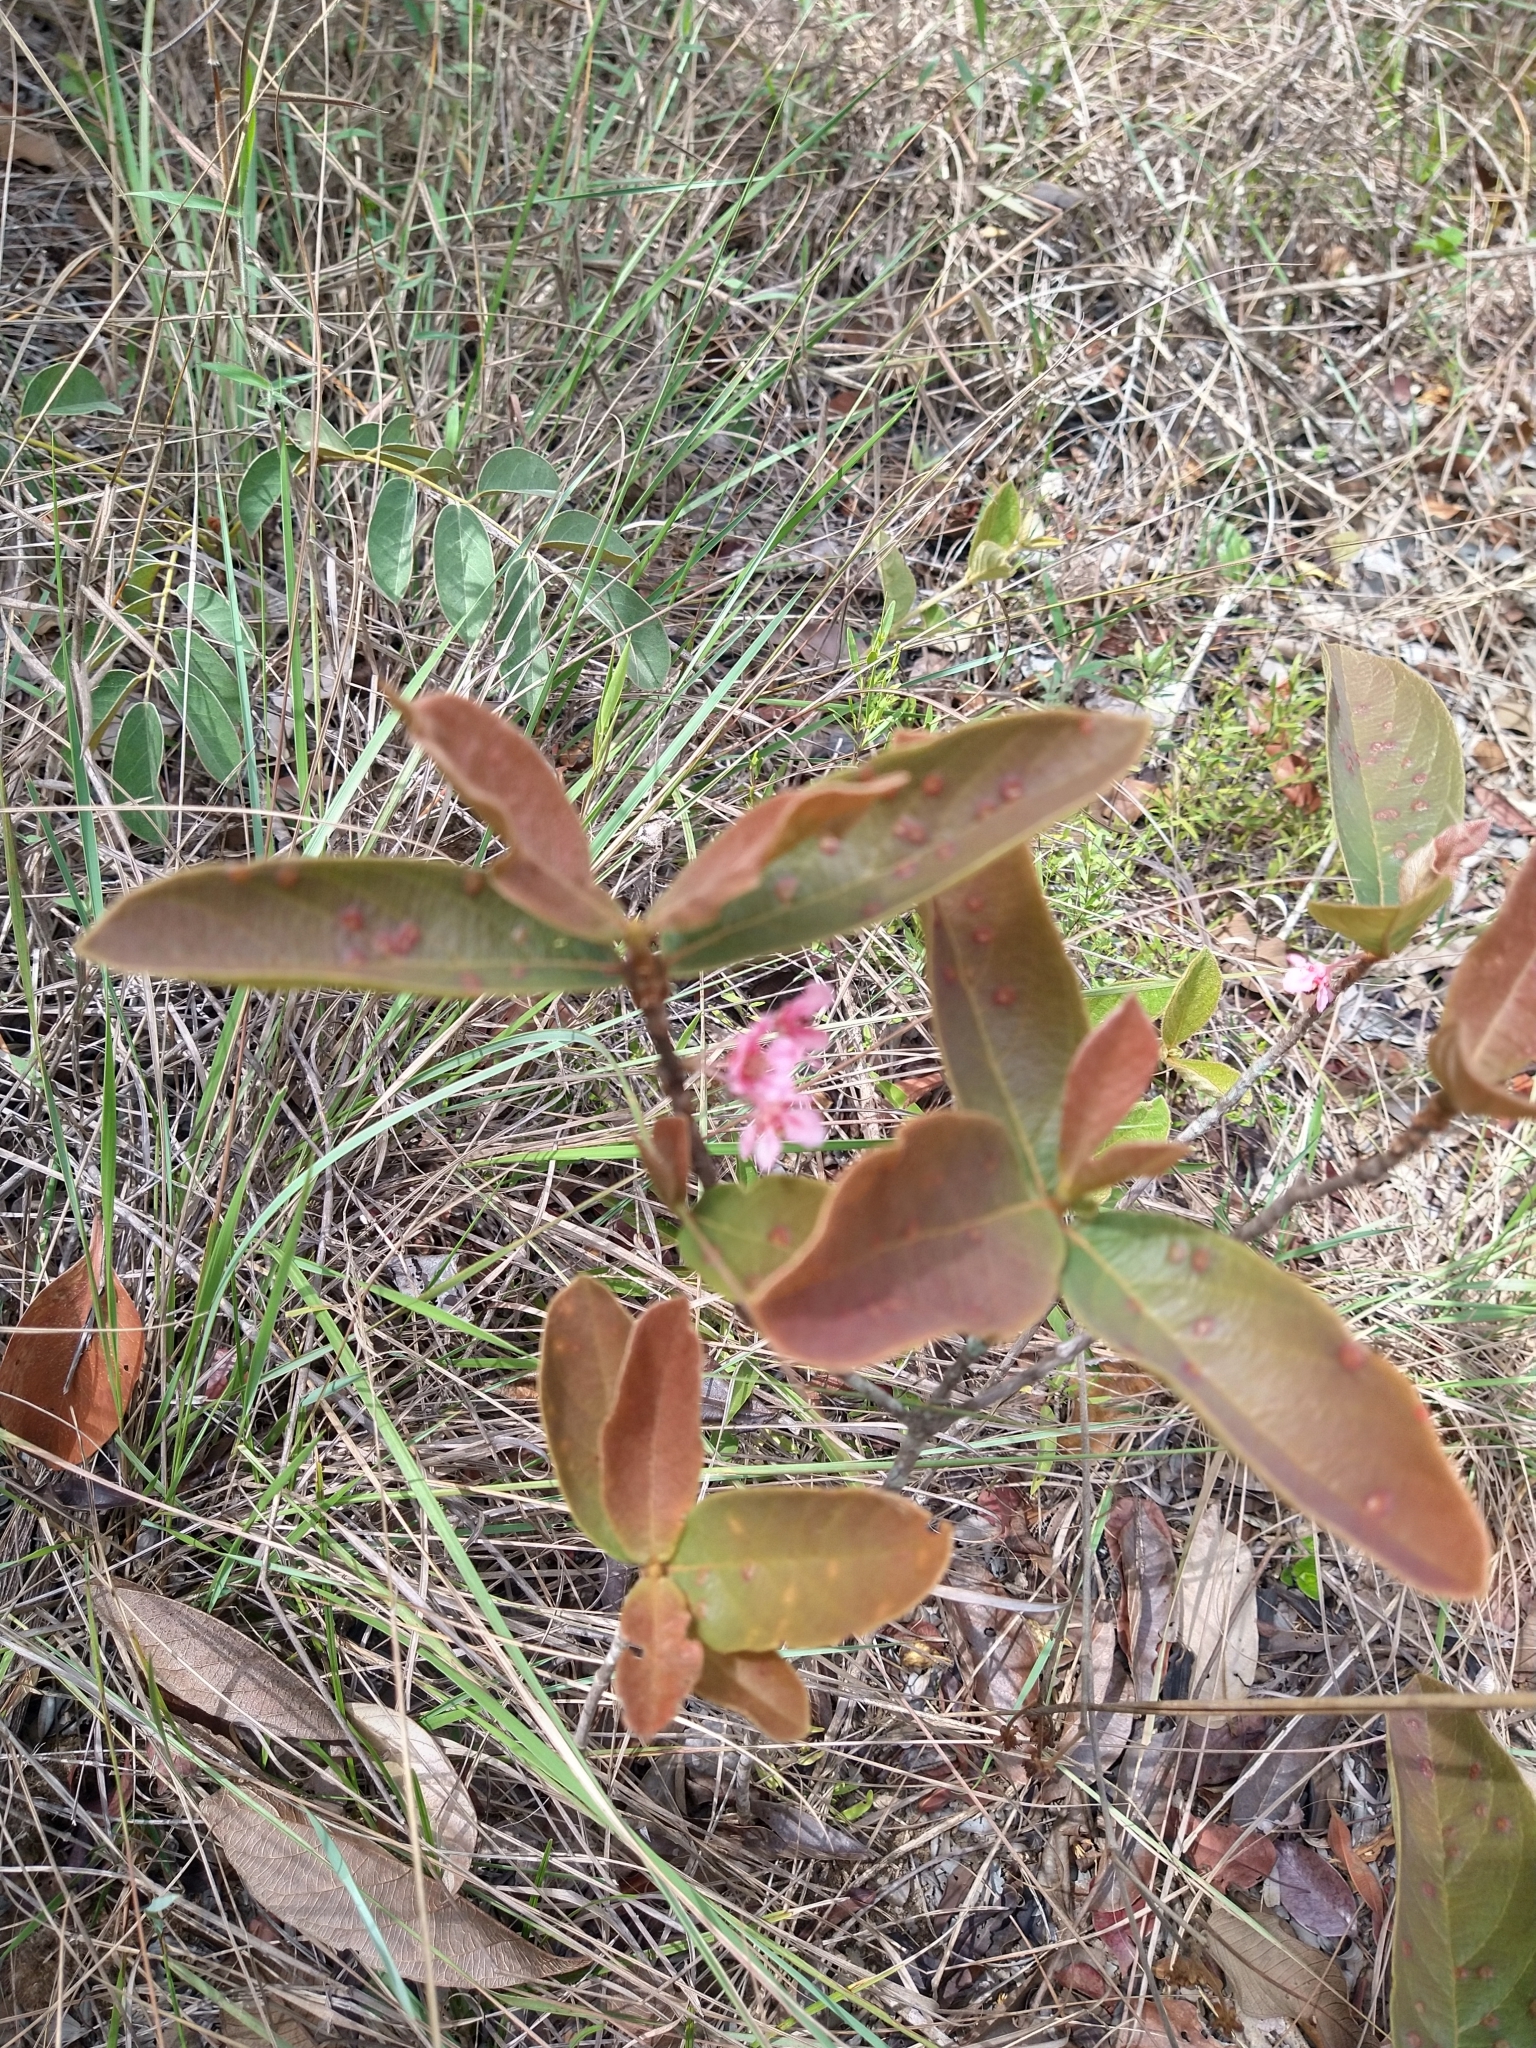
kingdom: Plantae
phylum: Tracheophyta
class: Magnoliopsida
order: Malpighiales
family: Malpighiaceae
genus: Pterandra
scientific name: Pterandra pyroidea
